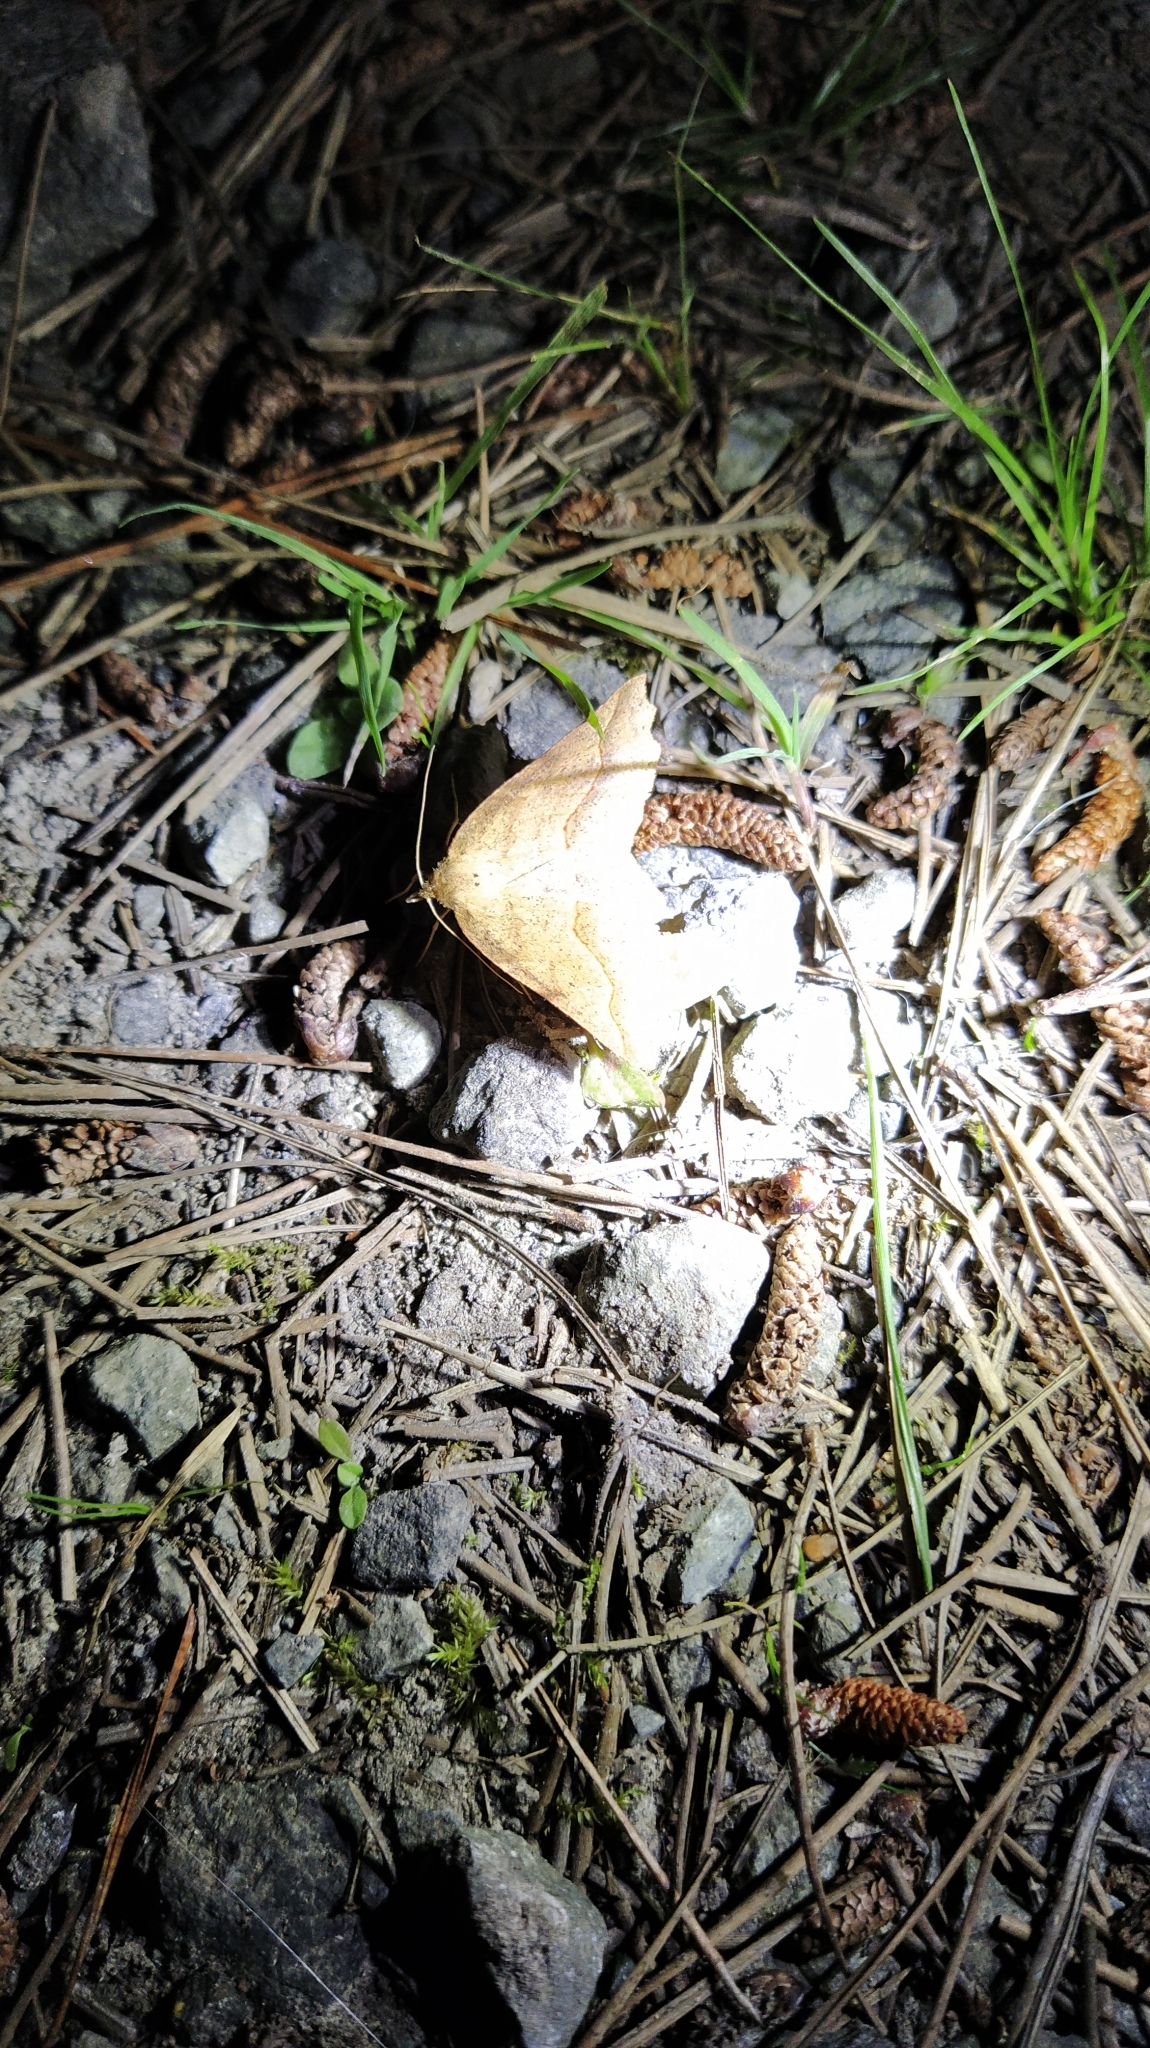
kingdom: Animalia
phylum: Arthropoda
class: Insecta
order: Lepidoptera
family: Geometridae
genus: Ischalis
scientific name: Ischalis variabilis
